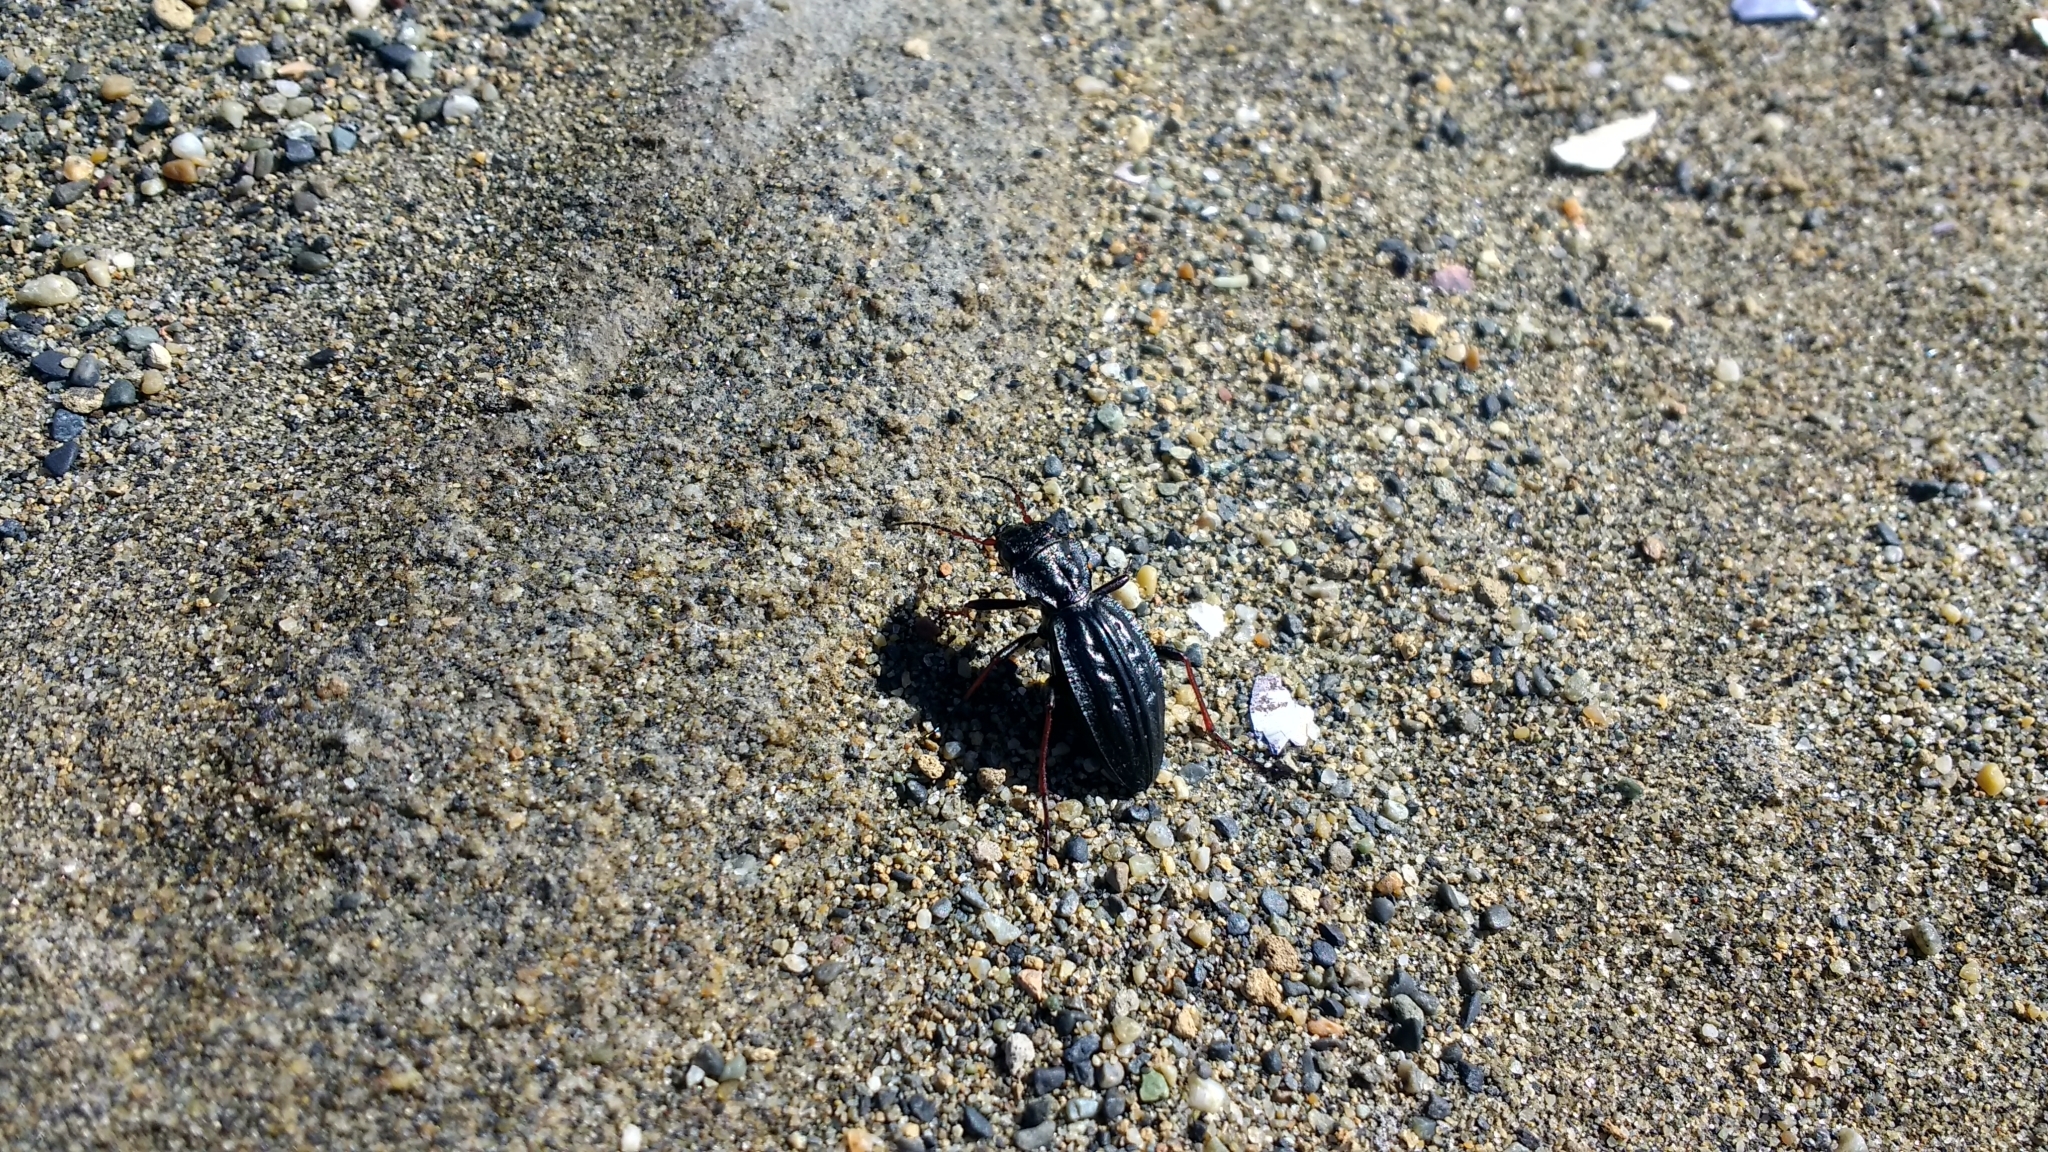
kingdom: Animalia
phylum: Arthropoda
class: Insecta
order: Coleoptera
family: Carabidae
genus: Picnochile
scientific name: Picnochile fallaciosa
